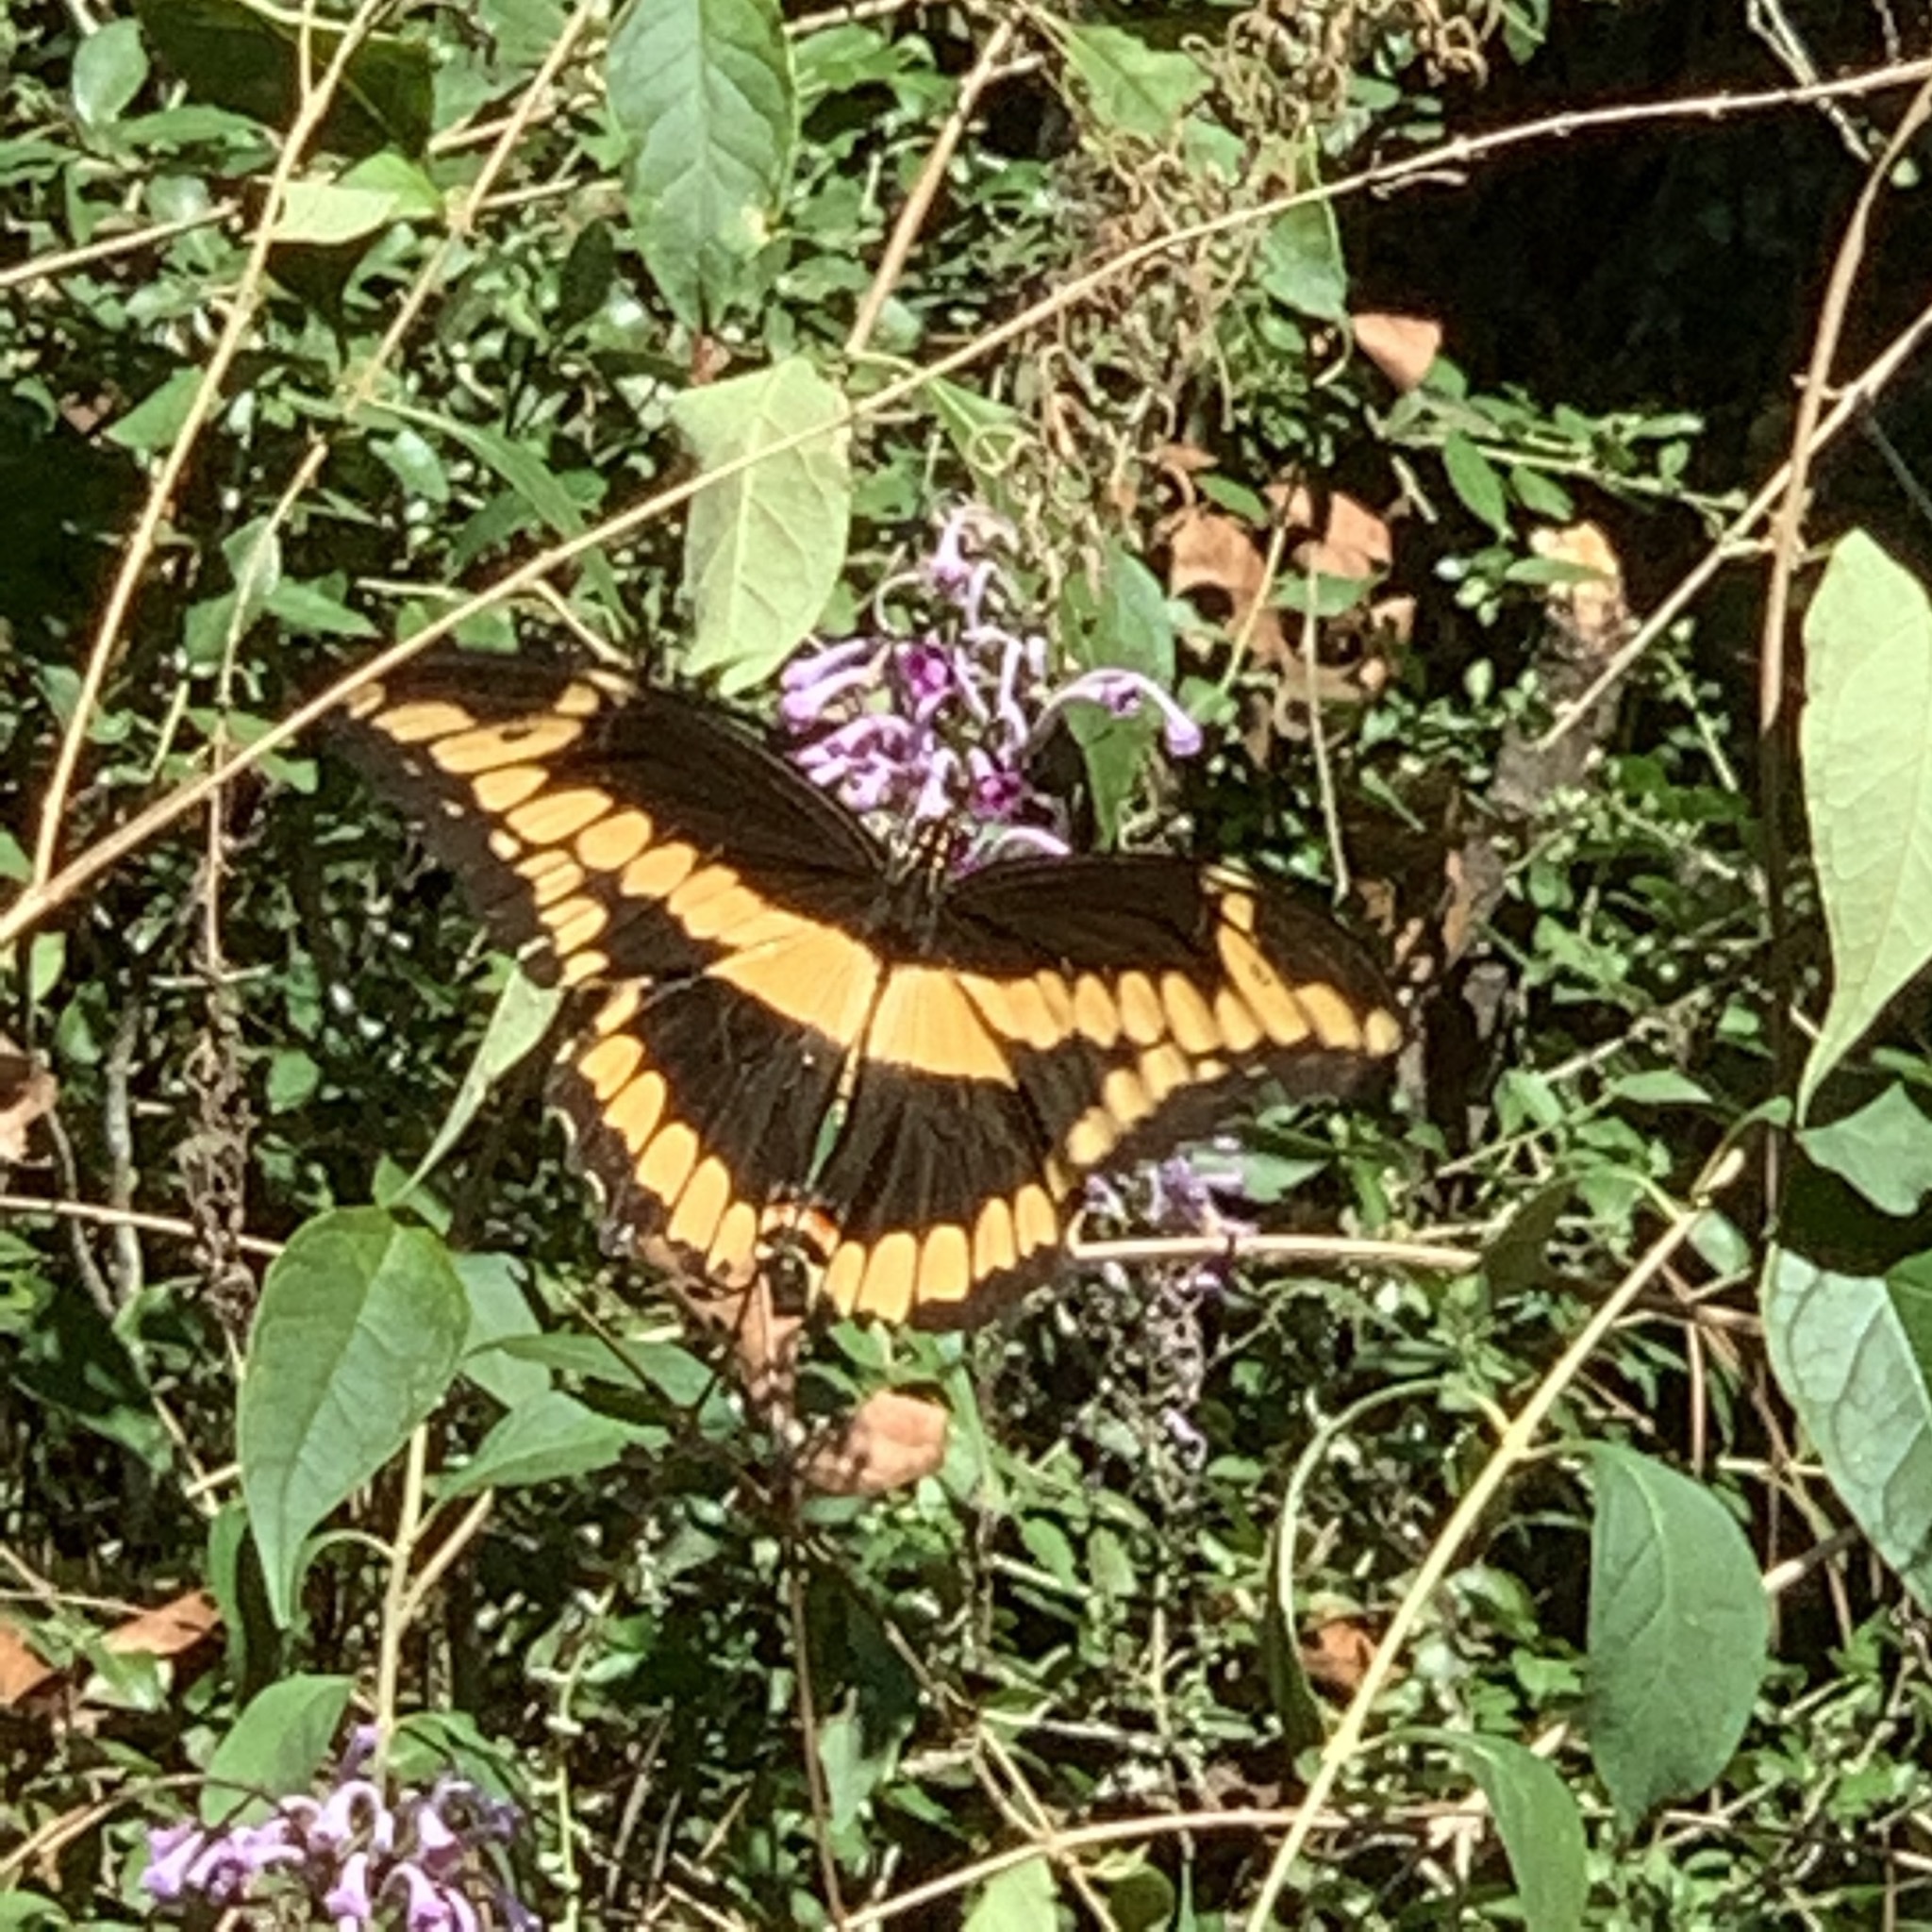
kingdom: Animalia
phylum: Arthropoda
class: Insecta
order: Lepidoptera
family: Papilionidae
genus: Papilio
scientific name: Papilio cresphontes
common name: Giant swallowtail
